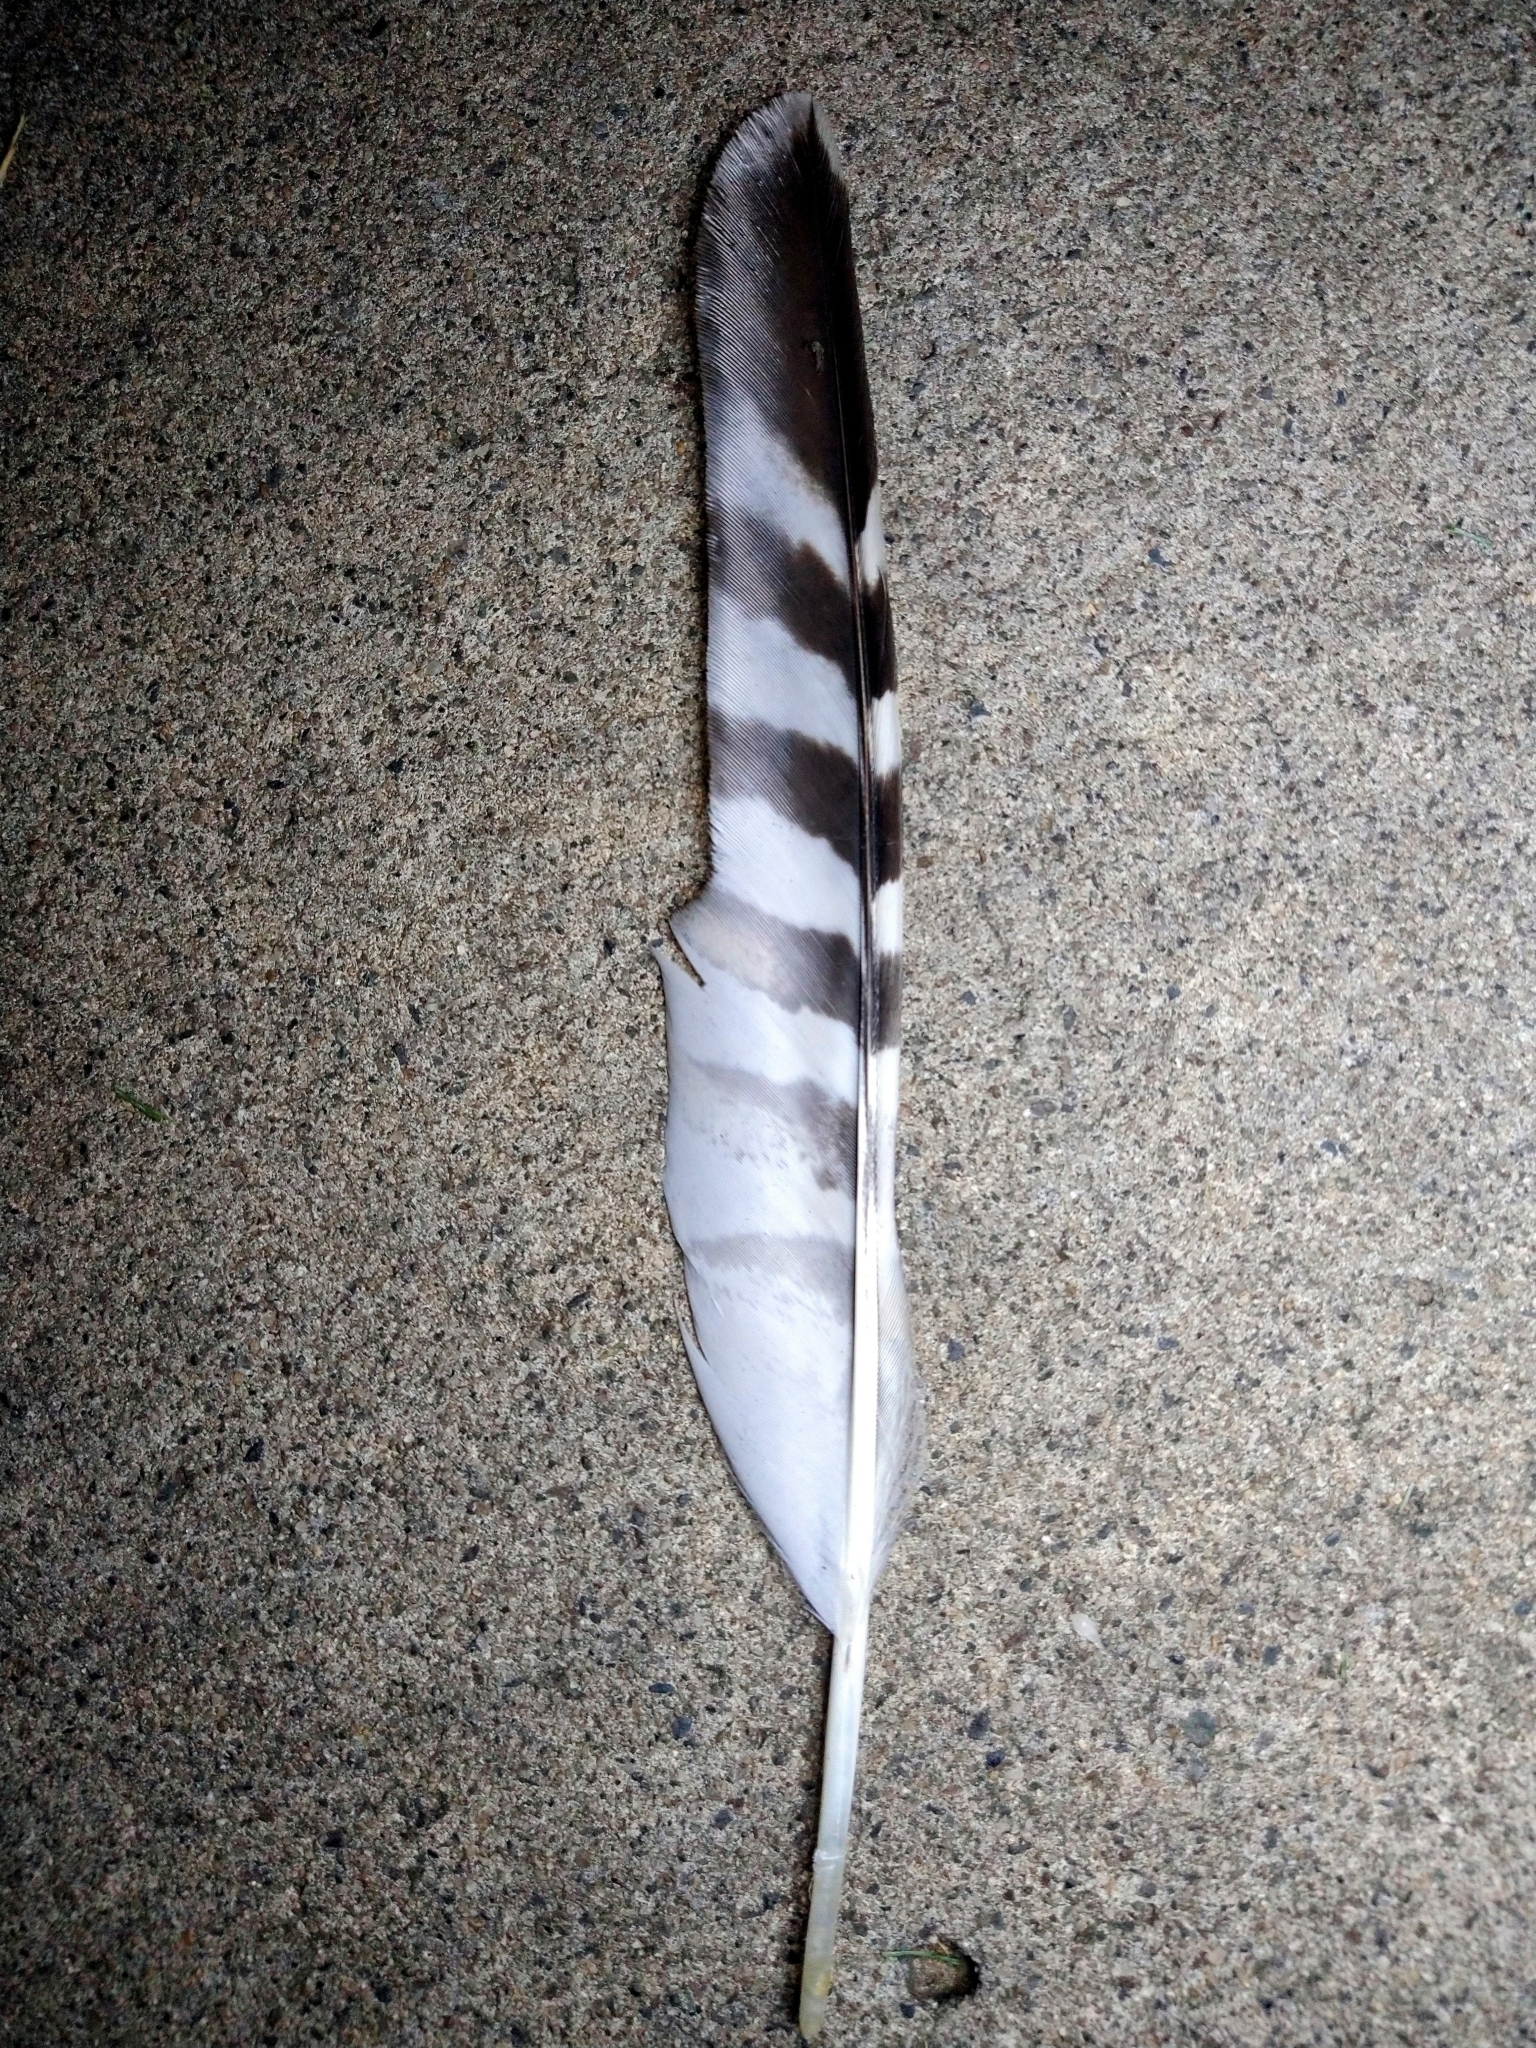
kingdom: Animalia
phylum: Chordata
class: Aves
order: Accipitriformes
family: Accipitridae
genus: Buteo
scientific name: Buteo lineatus
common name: Red-shouldered hawk
